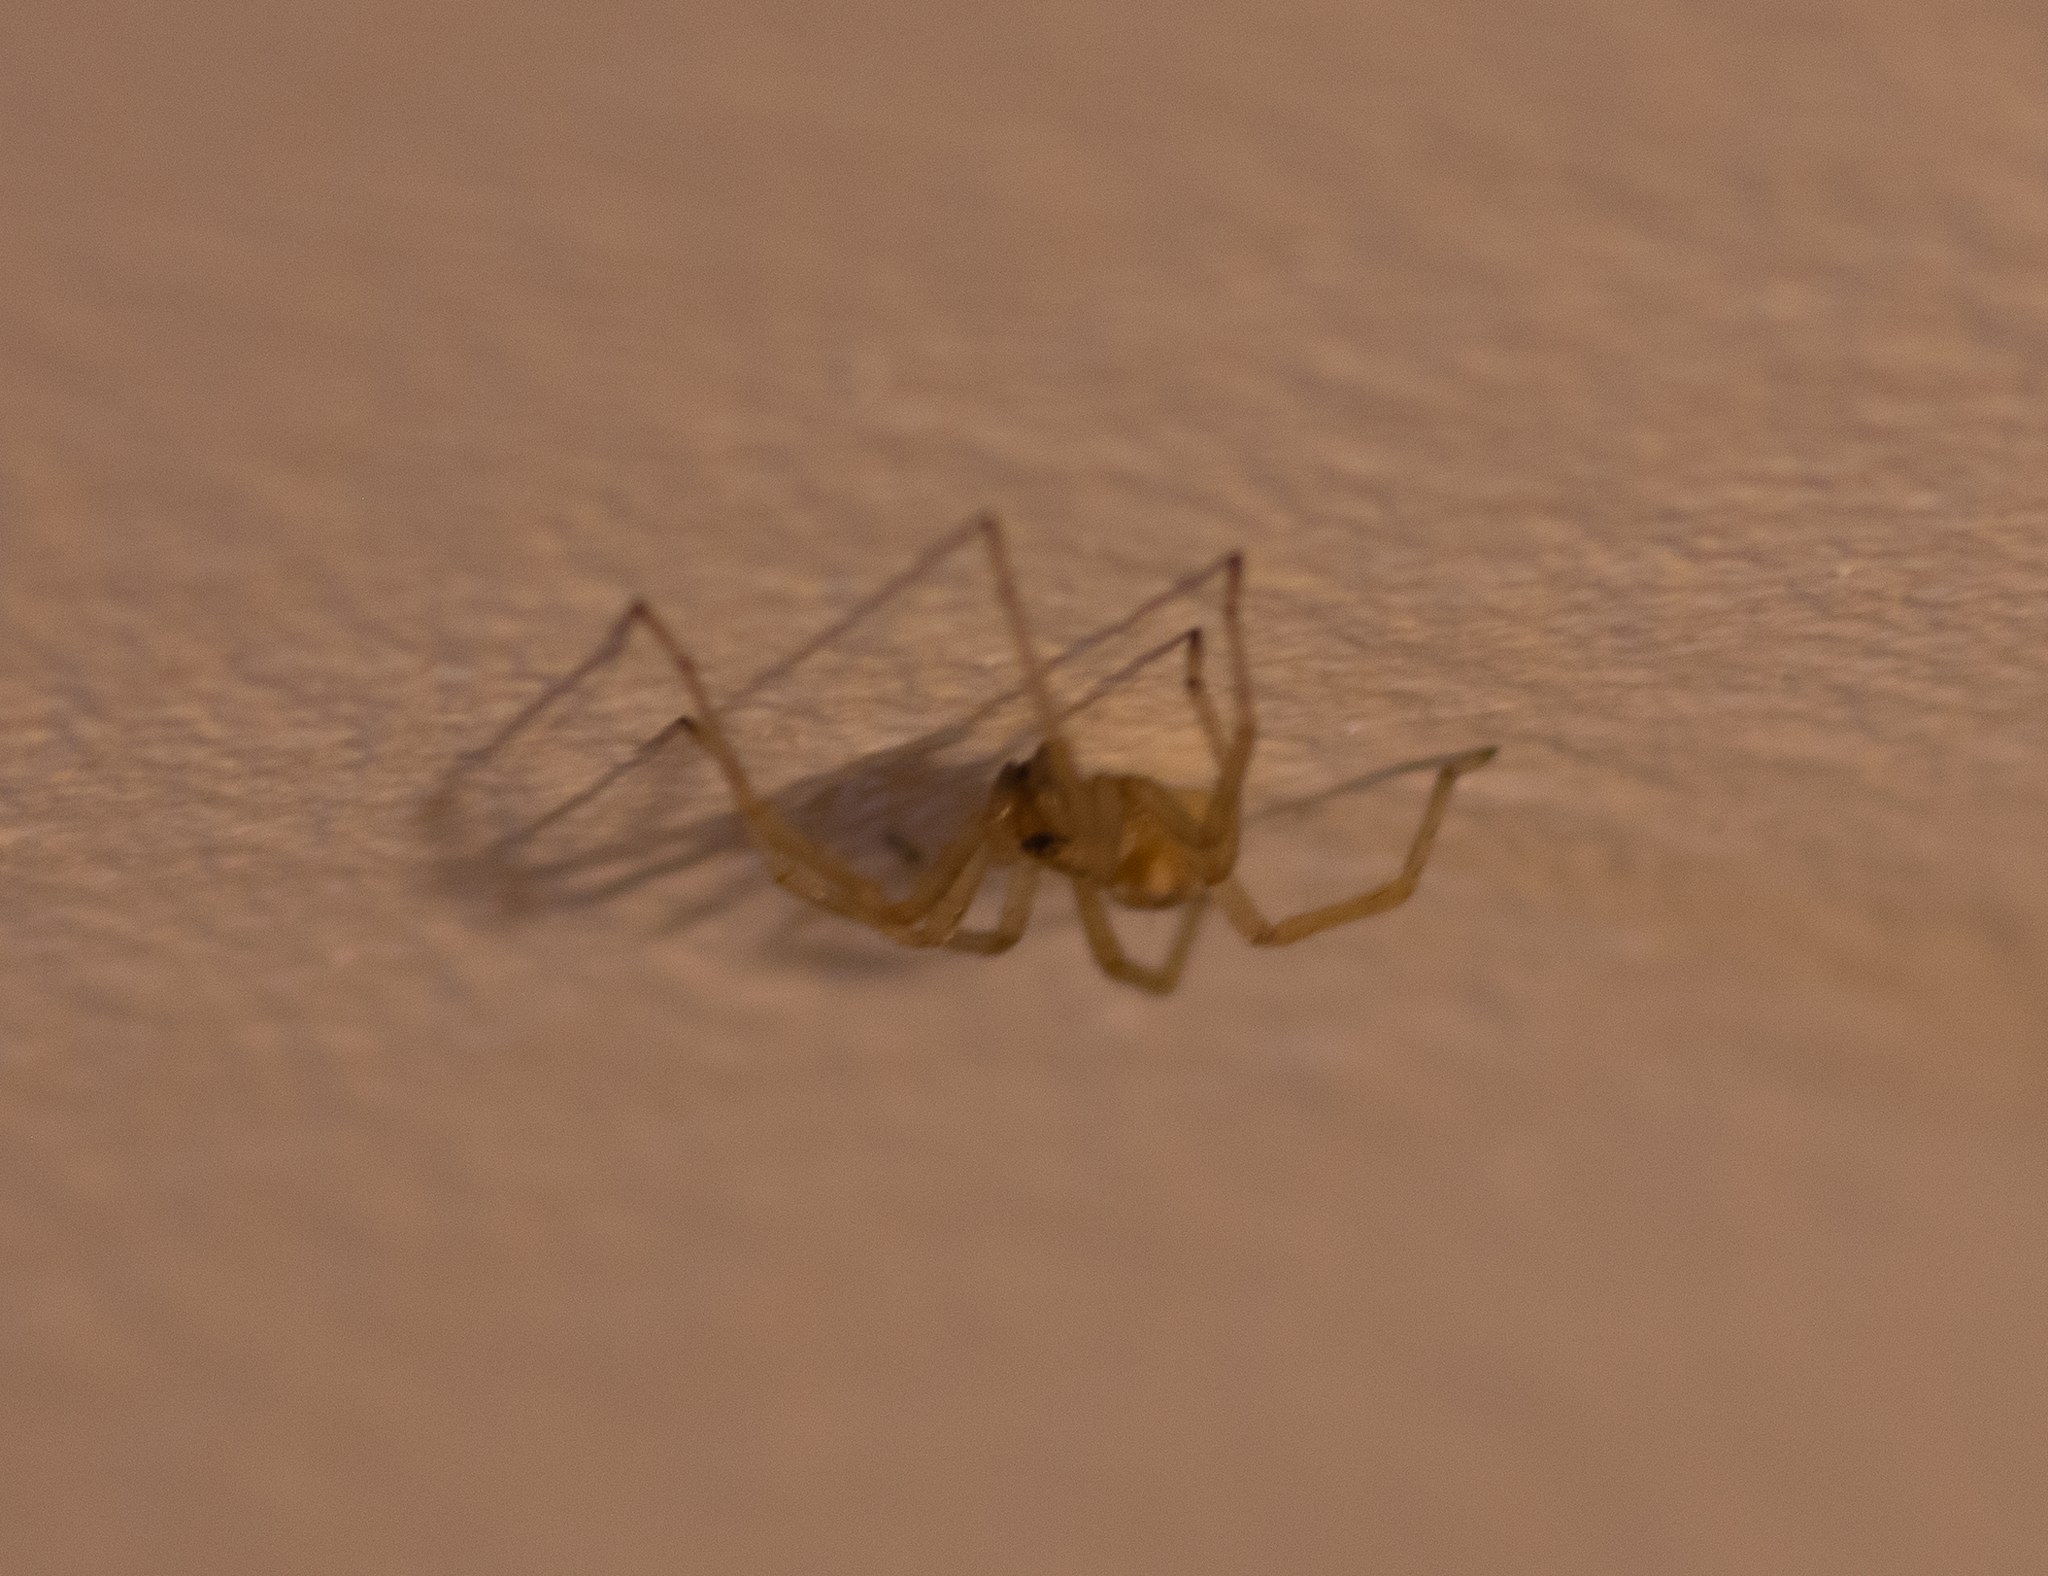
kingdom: Animalia
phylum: Arthropoda
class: Arachnida
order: Araneae
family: Cheiracanthiidae
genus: Cheiracanthium
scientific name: Cheiracanthium mildei
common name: Northern yellow sac spider
